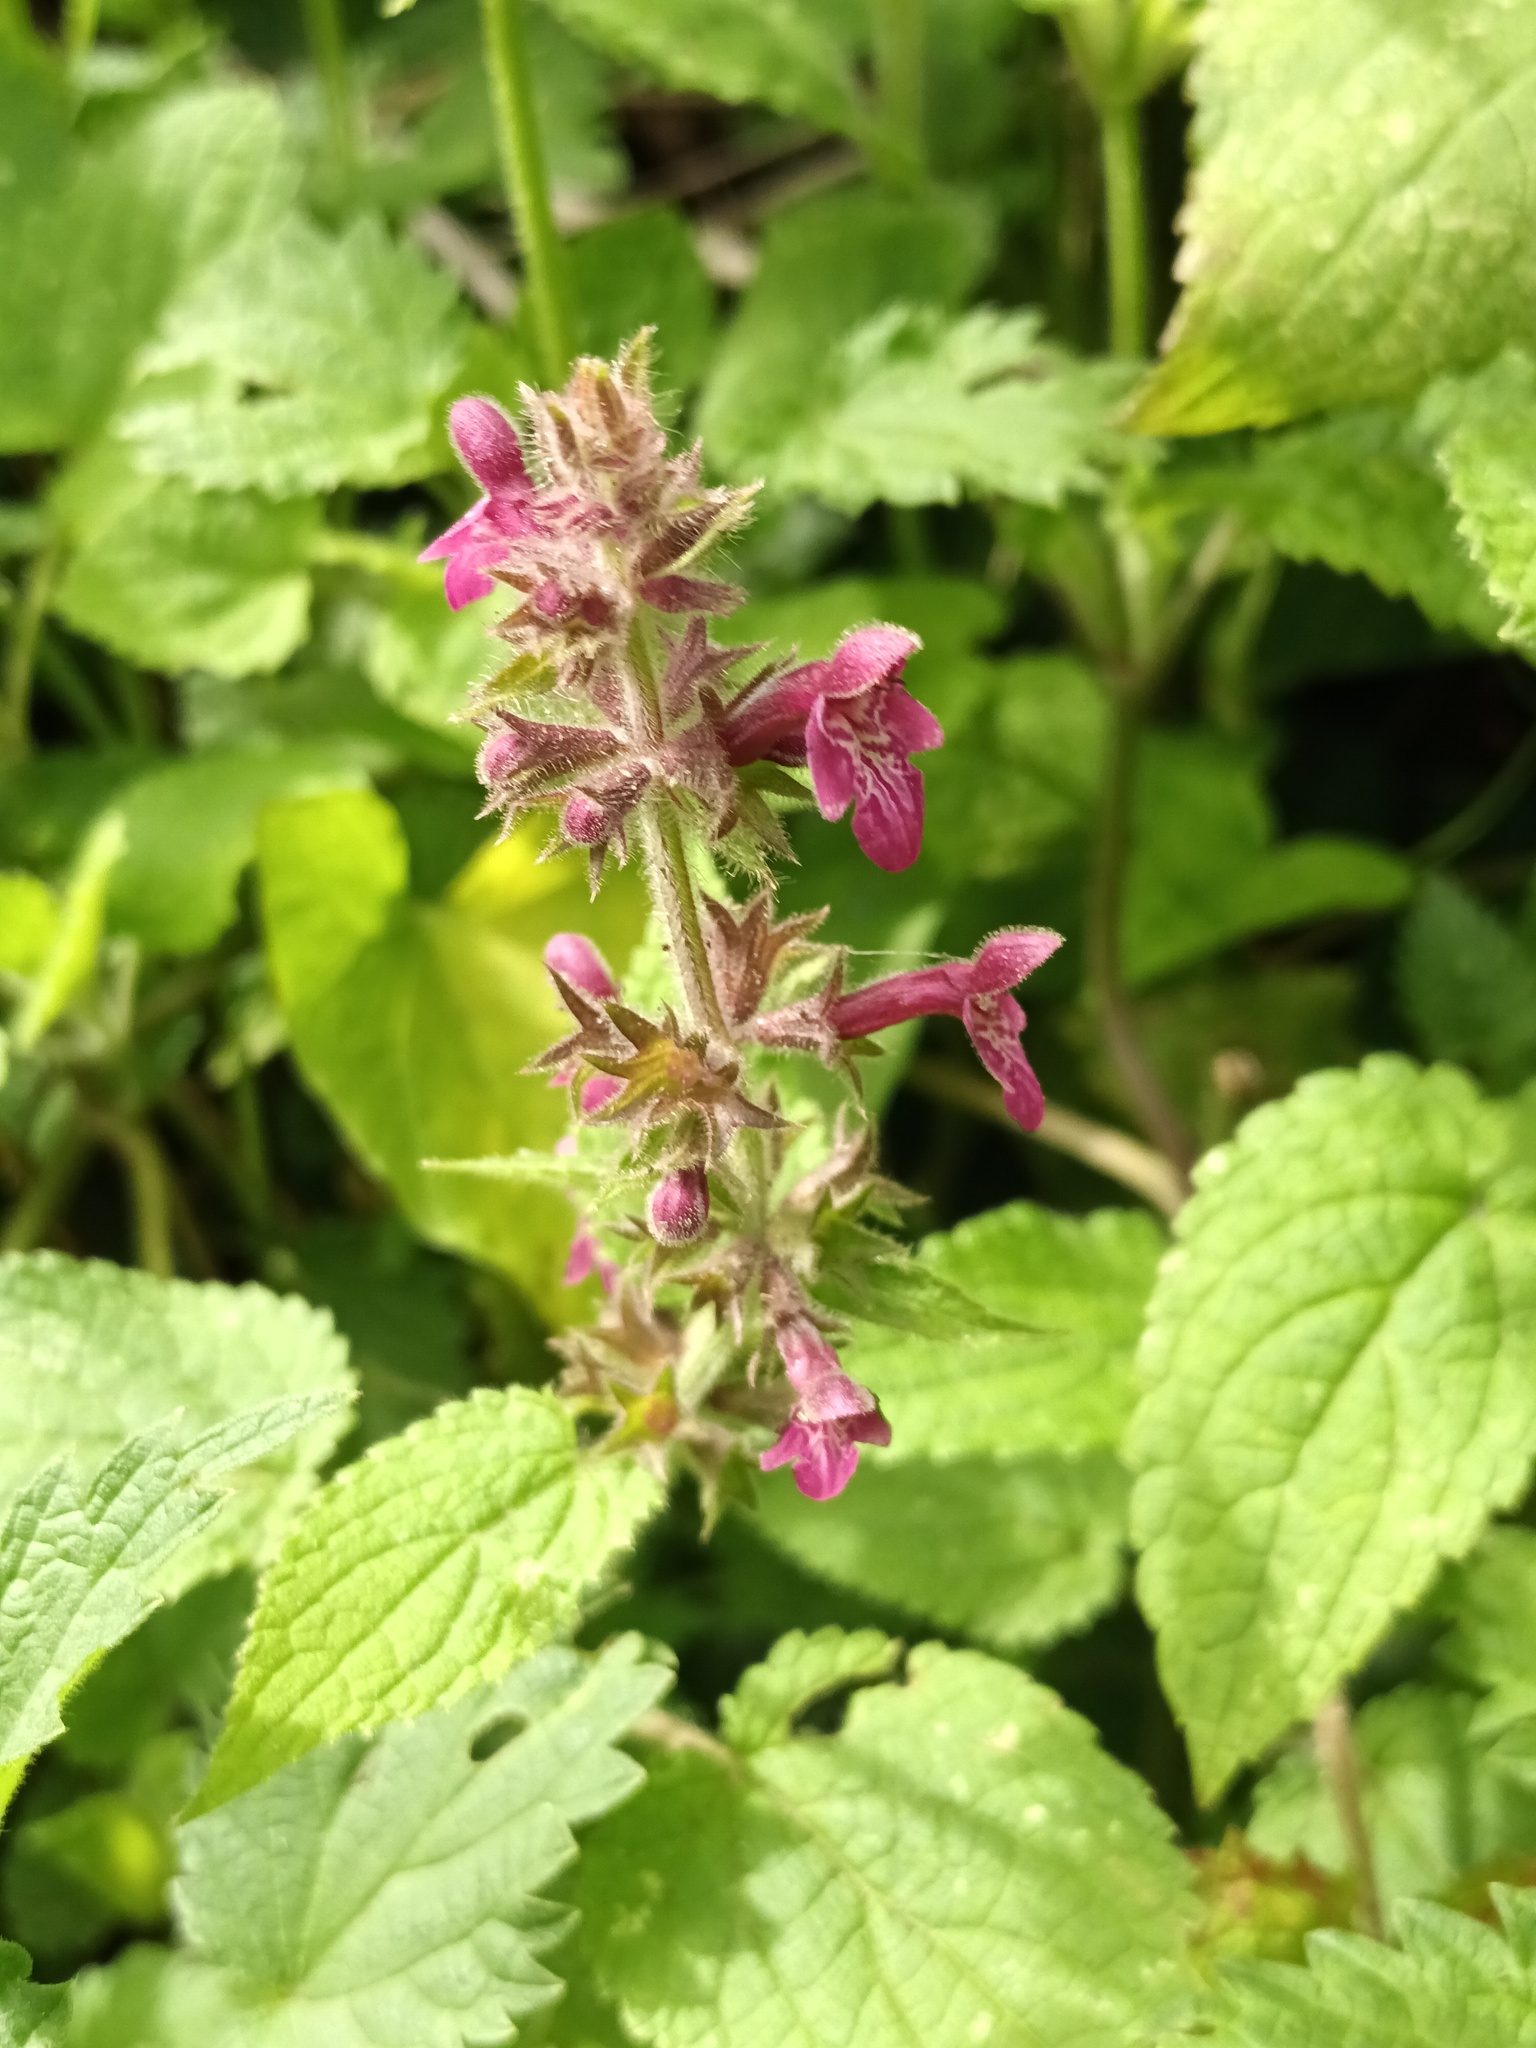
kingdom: Plantae
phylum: Tracheophyta
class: Magnoliopsida
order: Lamiales
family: Lamiaceae
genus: Stachys
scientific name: Stachys sylvatica
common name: Hedge woundwort
